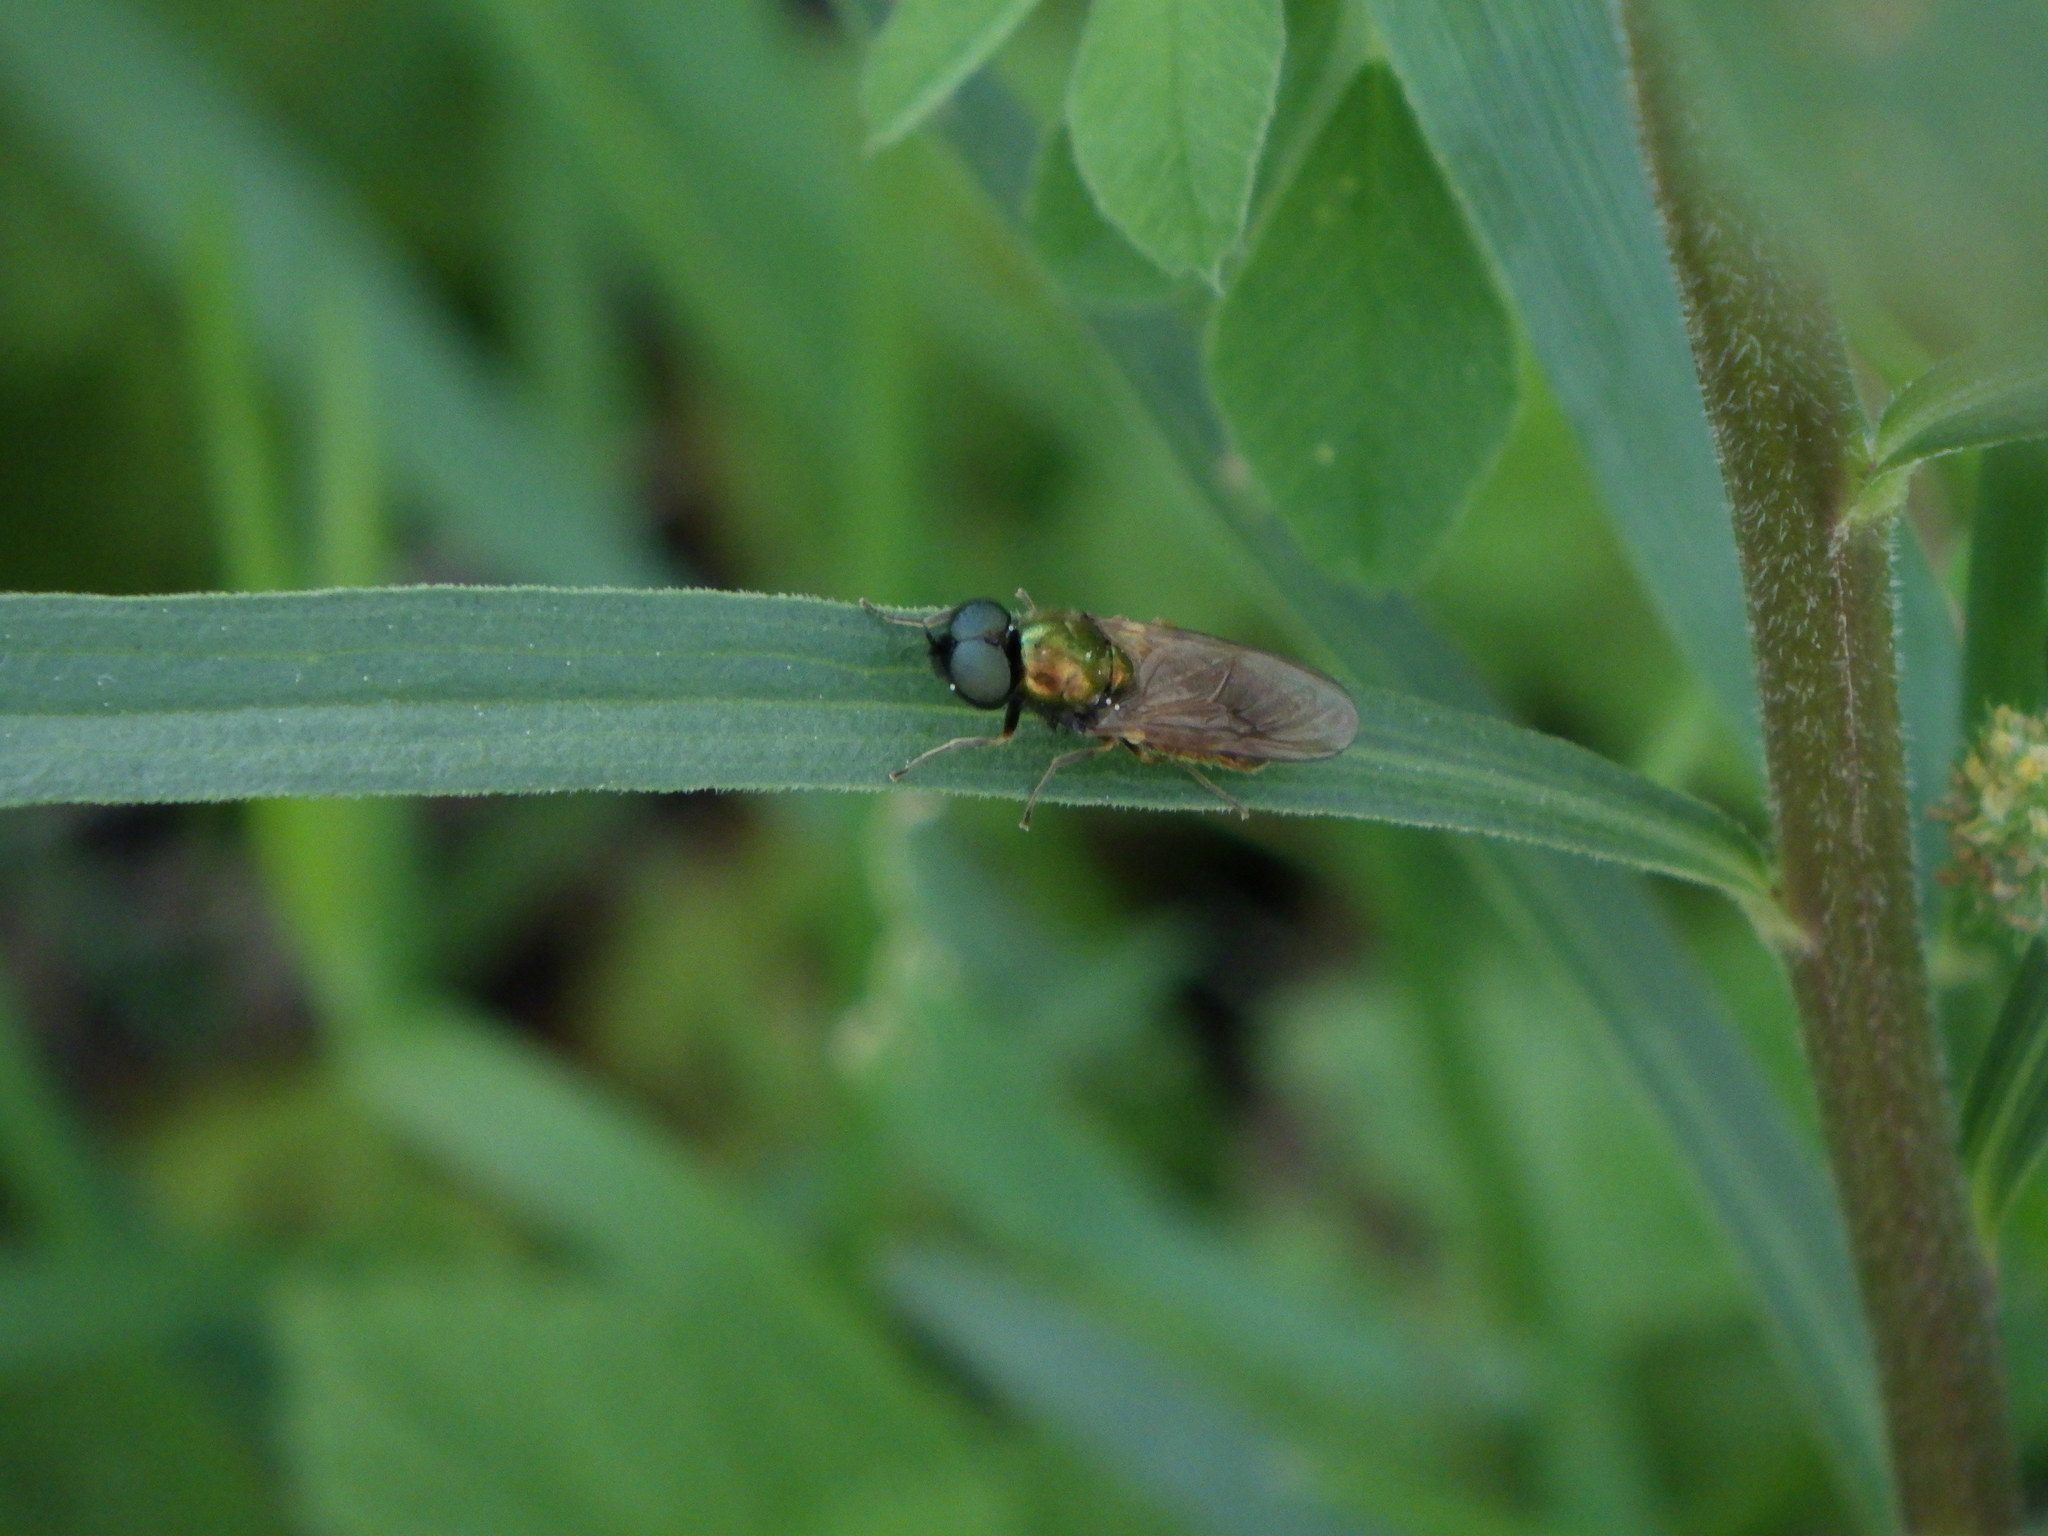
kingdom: Animalia
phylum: Arthropoda
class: Insecta
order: Diptera
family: Stratiomyidae
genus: Chloromyia
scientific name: Chloromyia formosa
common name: Soldier fly
